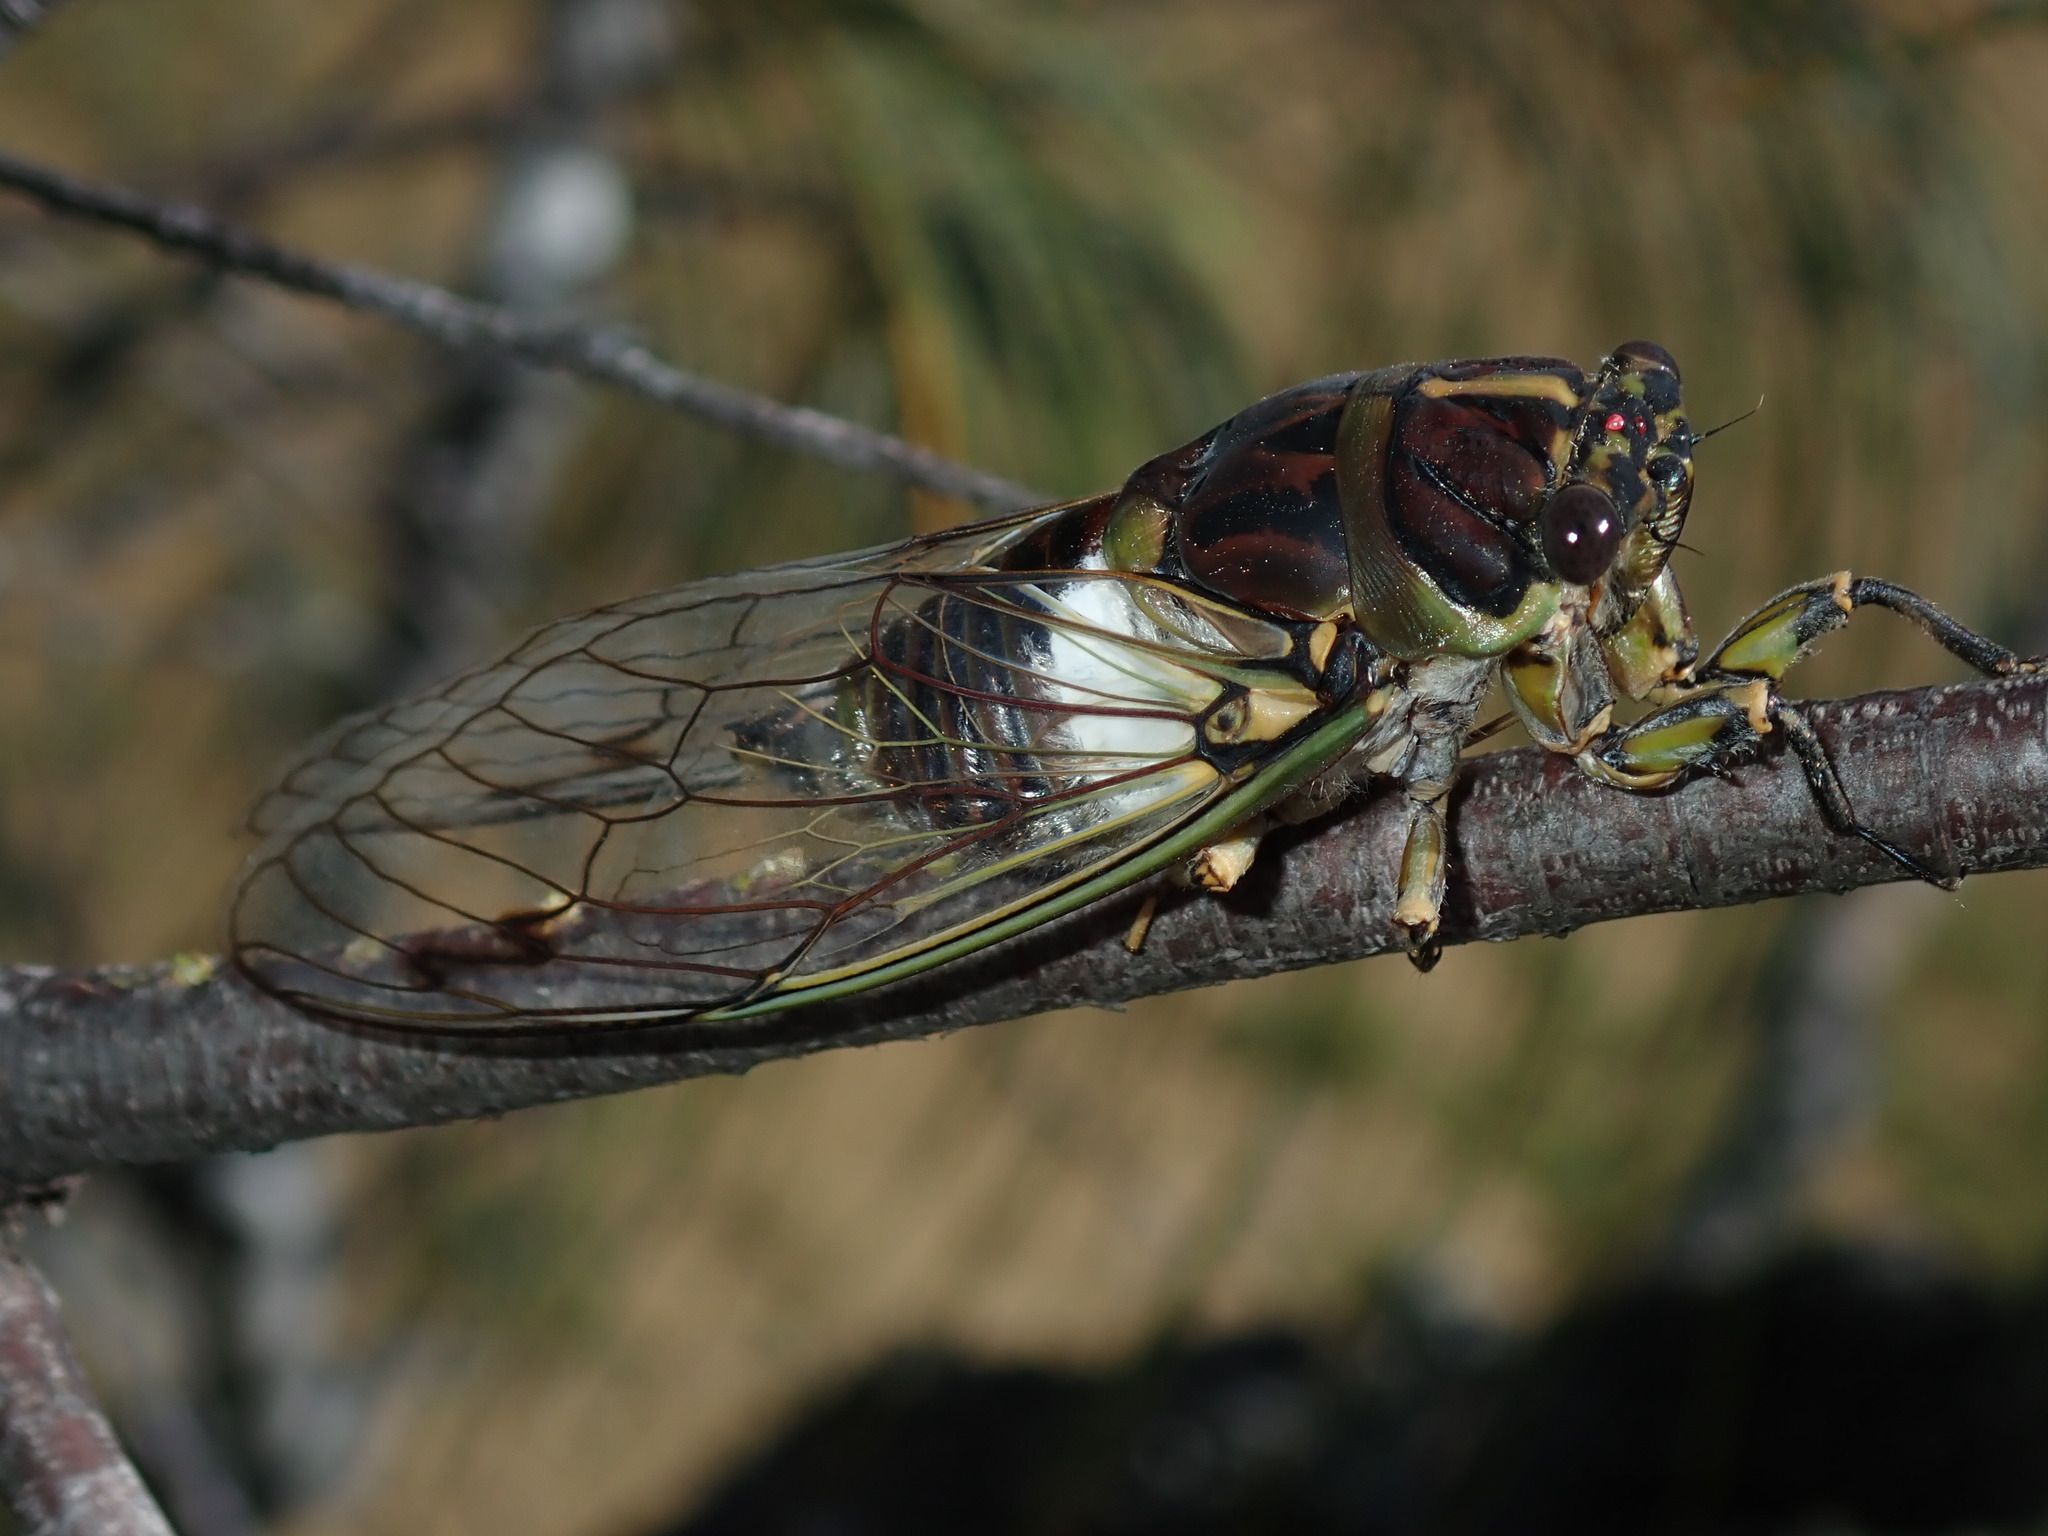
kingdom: Animalia
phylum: Arthropoda
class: Insecta
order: Hemiptera
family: Cicadidae
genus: Arunta
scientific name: Arunta perulata
